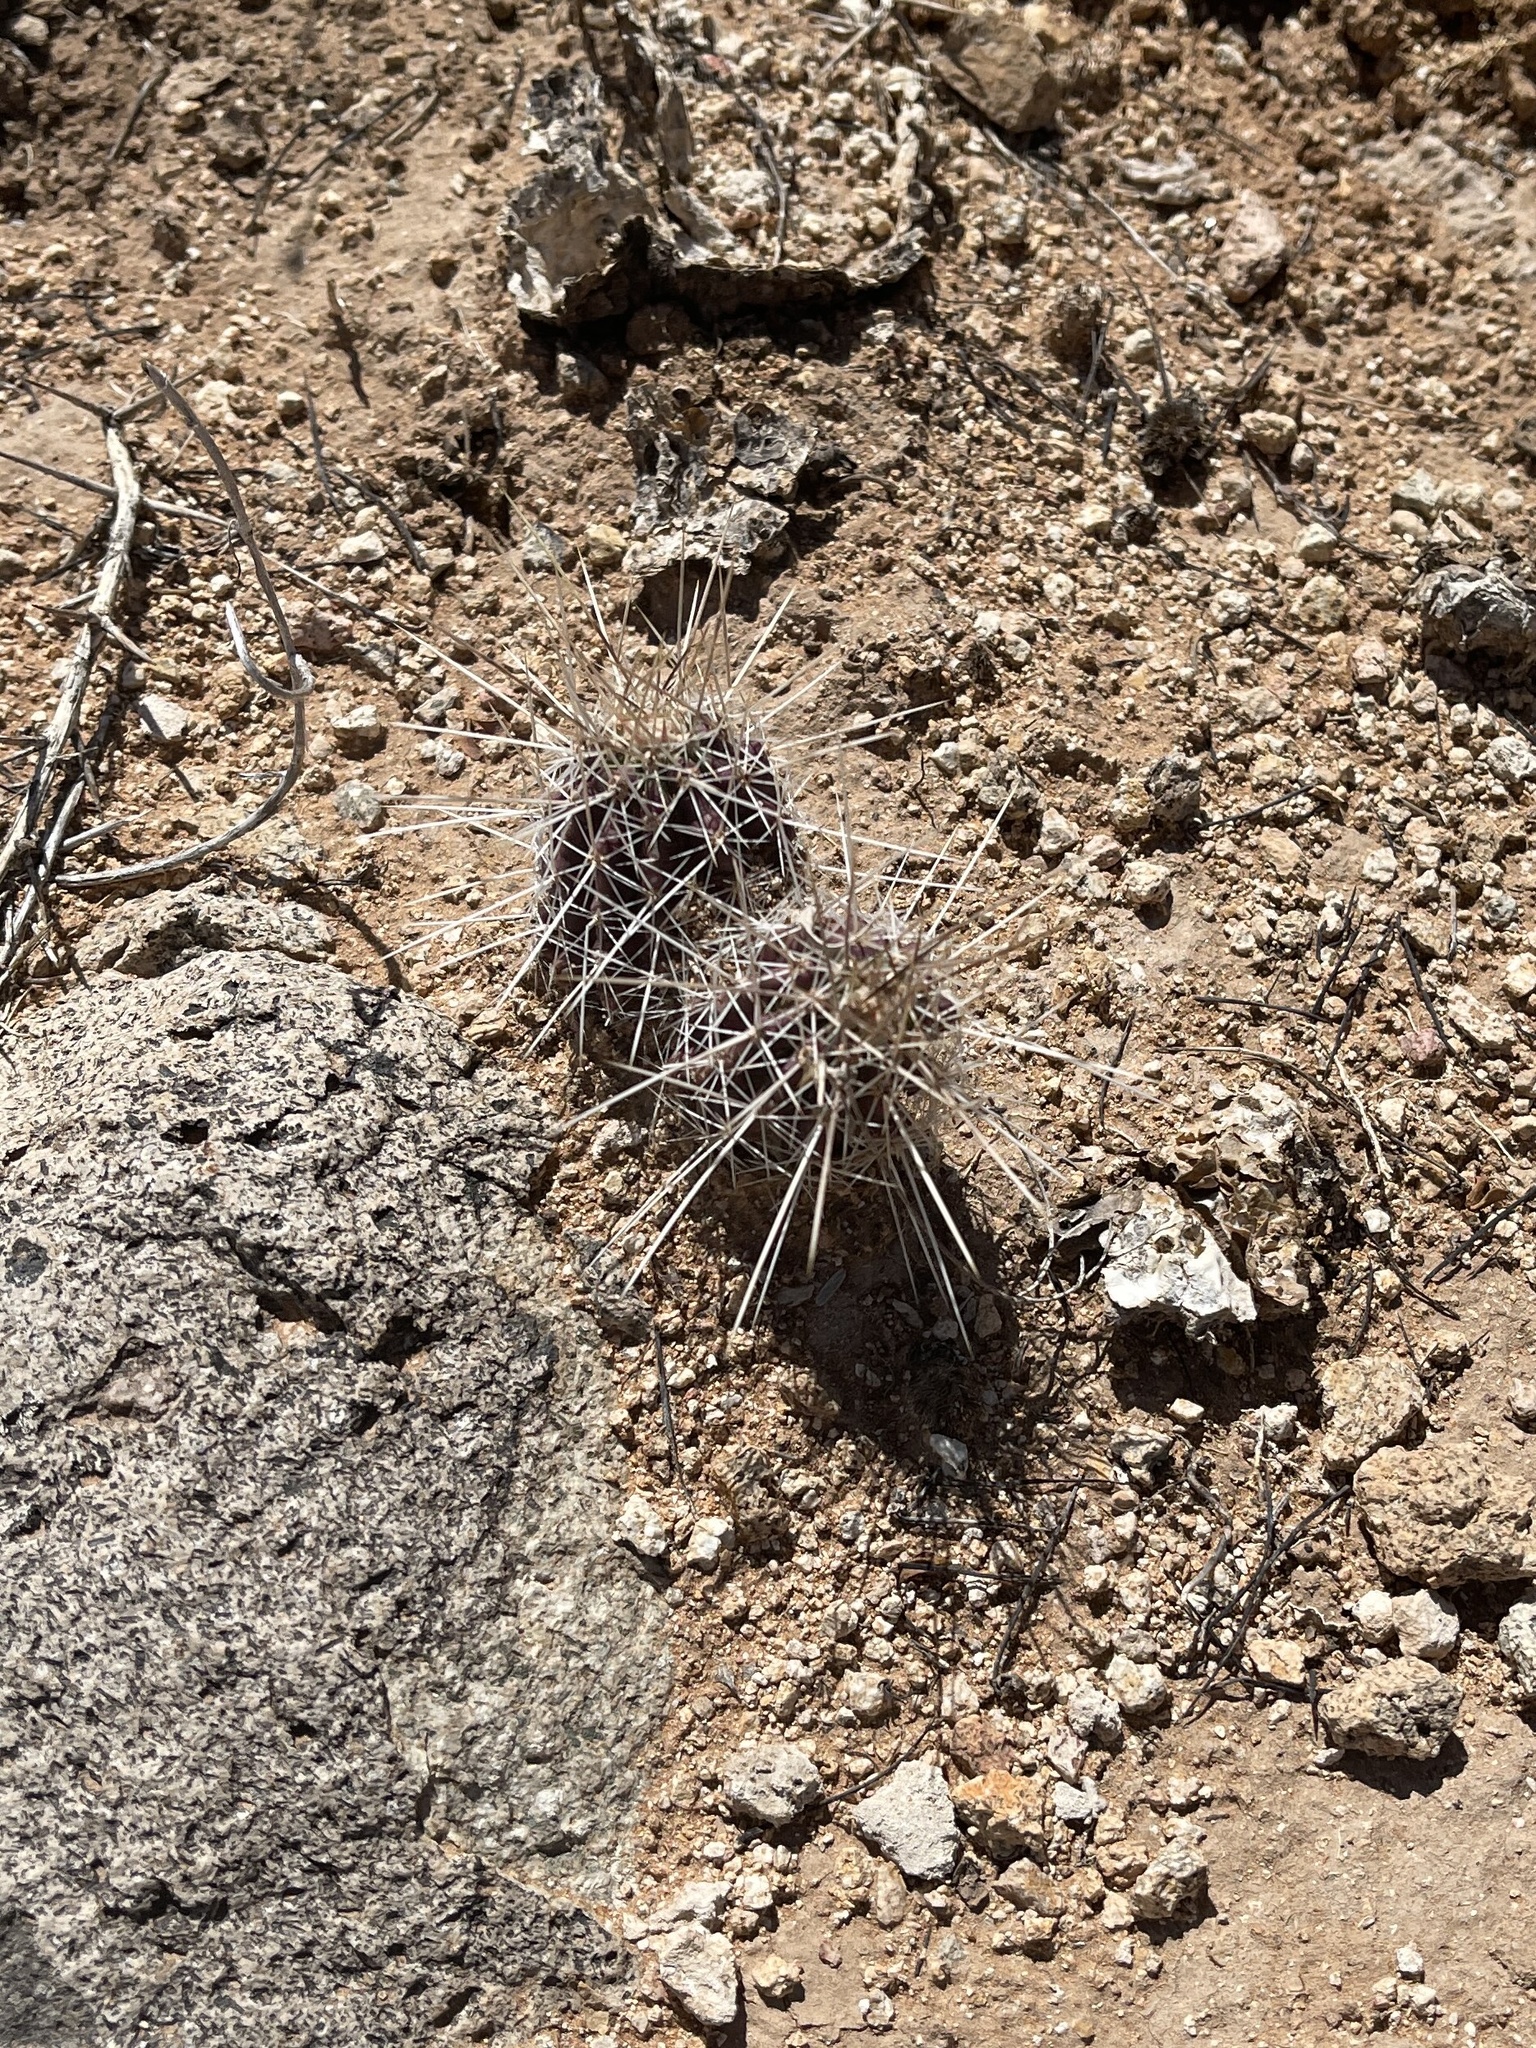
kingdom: Plantae
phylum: Tracheophyta
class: Magnoliopsida
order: Caryophyllales
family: Cactaceae
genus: Echinocereus
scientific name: Echinocereus stramineus
